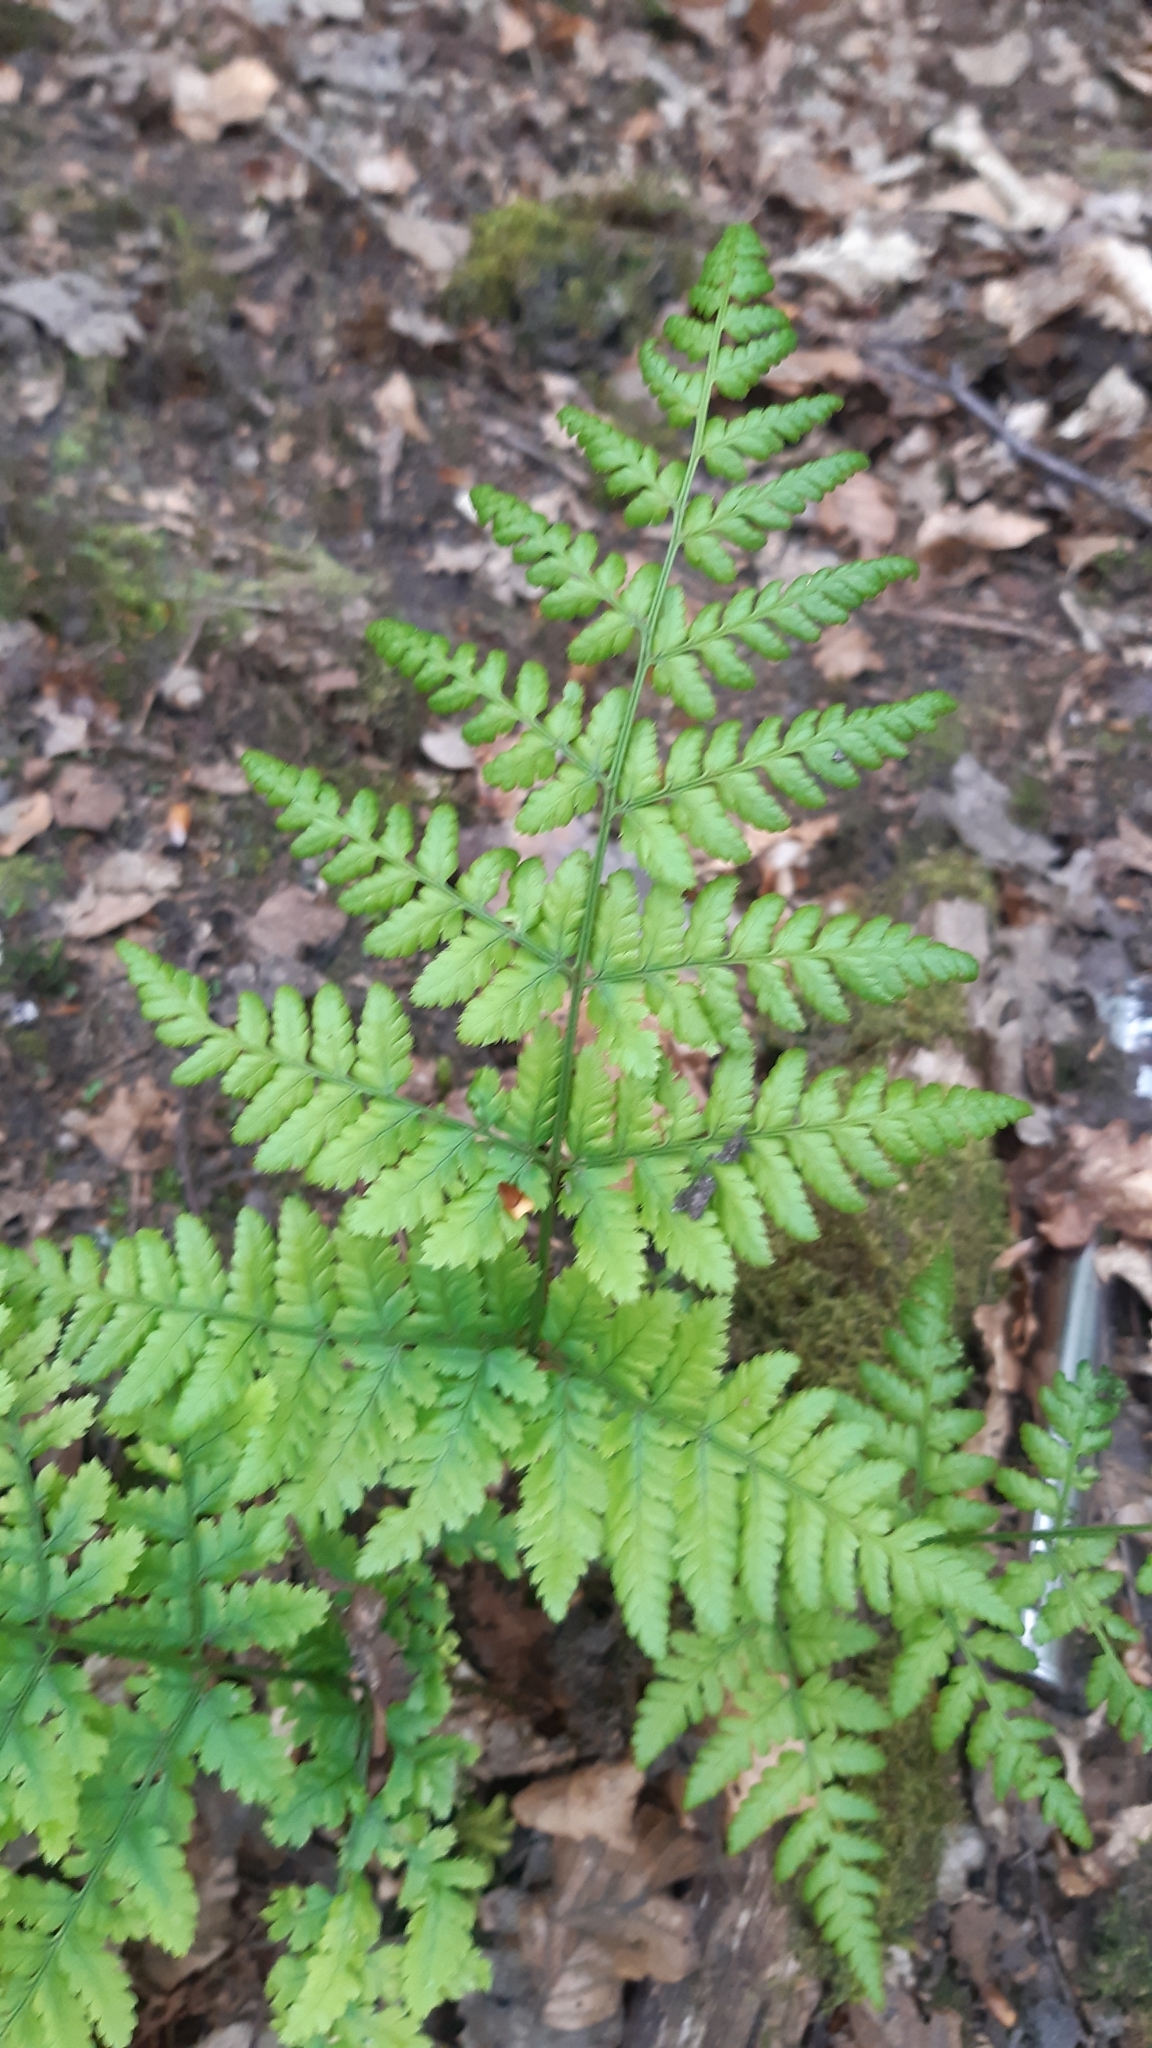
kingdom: Plantae
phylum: Tracheophyta
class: Polypodiopsida
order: Polypodiales
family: Dryopteridaceae
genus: Dryopteris
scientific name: Dryopteris dilatata
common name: Broad buckler-fern
